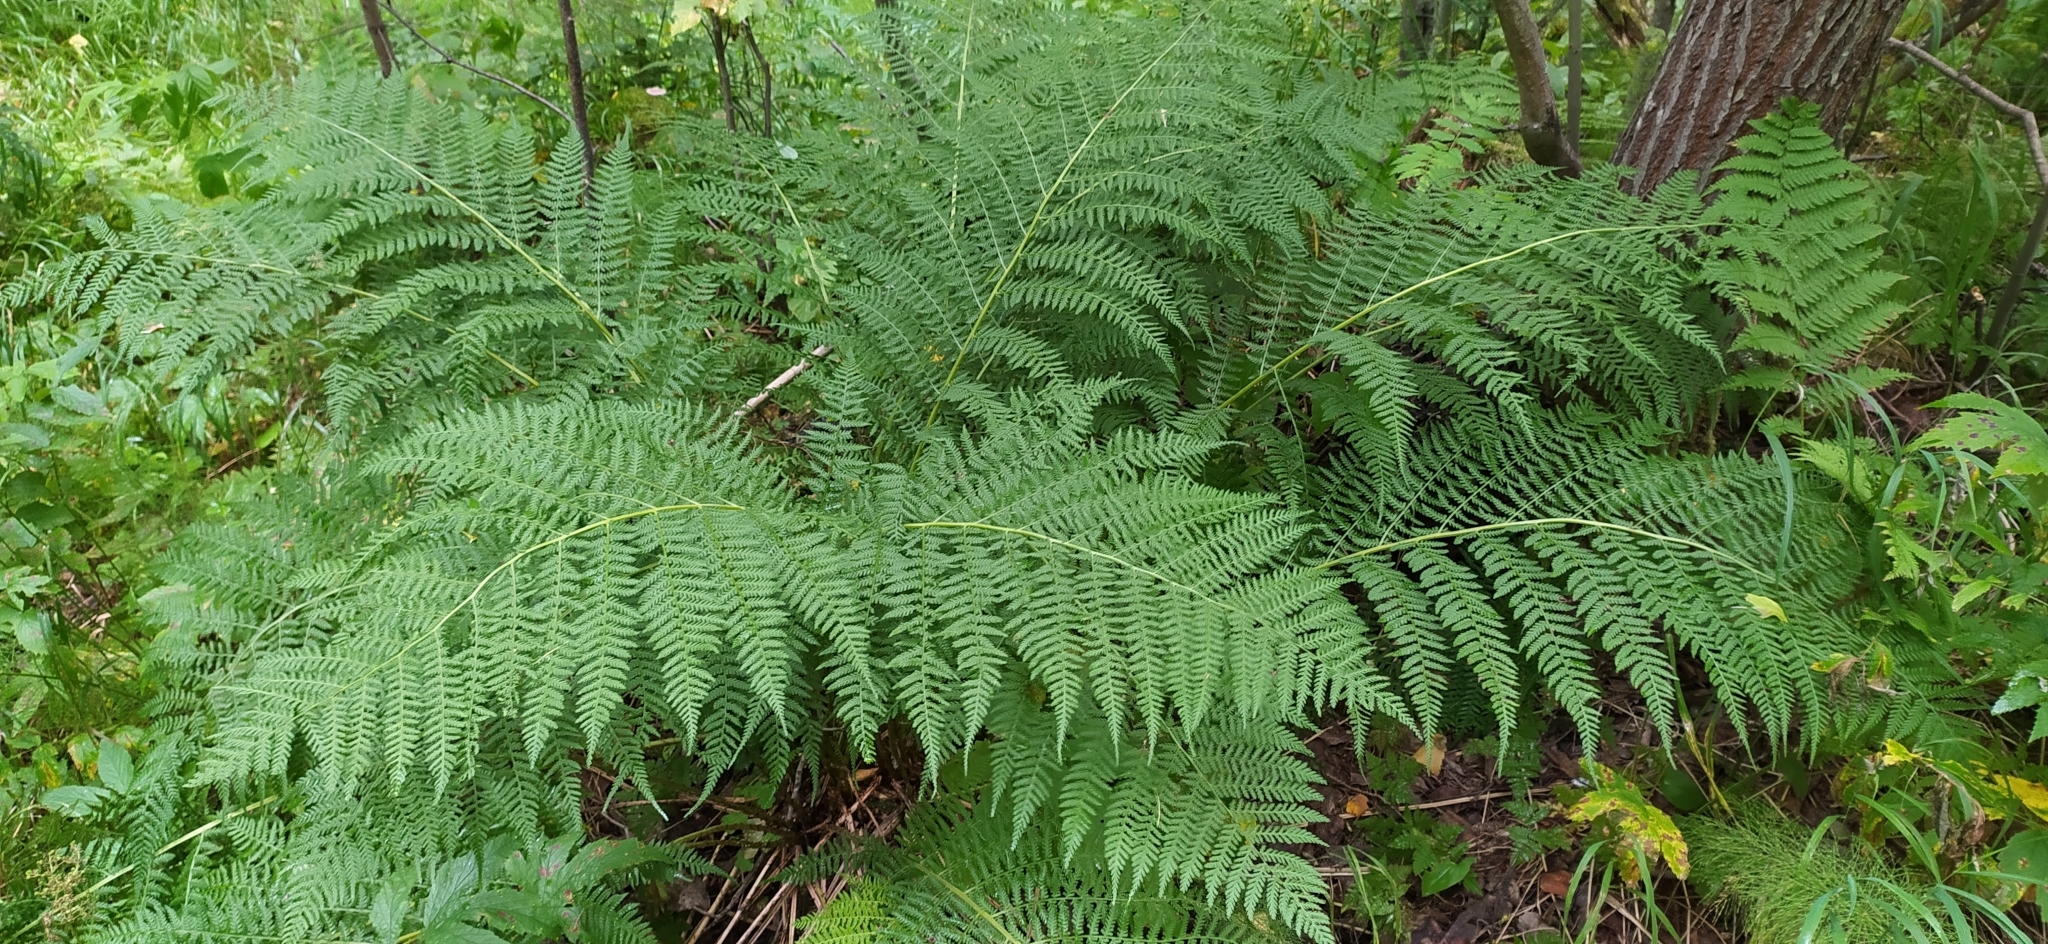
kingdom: Plantae
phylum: Tracheophyta
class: Polypodiopsida
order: Polypodiales
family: Athyriaceae
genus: Athyrium
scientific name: Athyrium filix-femina
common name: Lady fern
